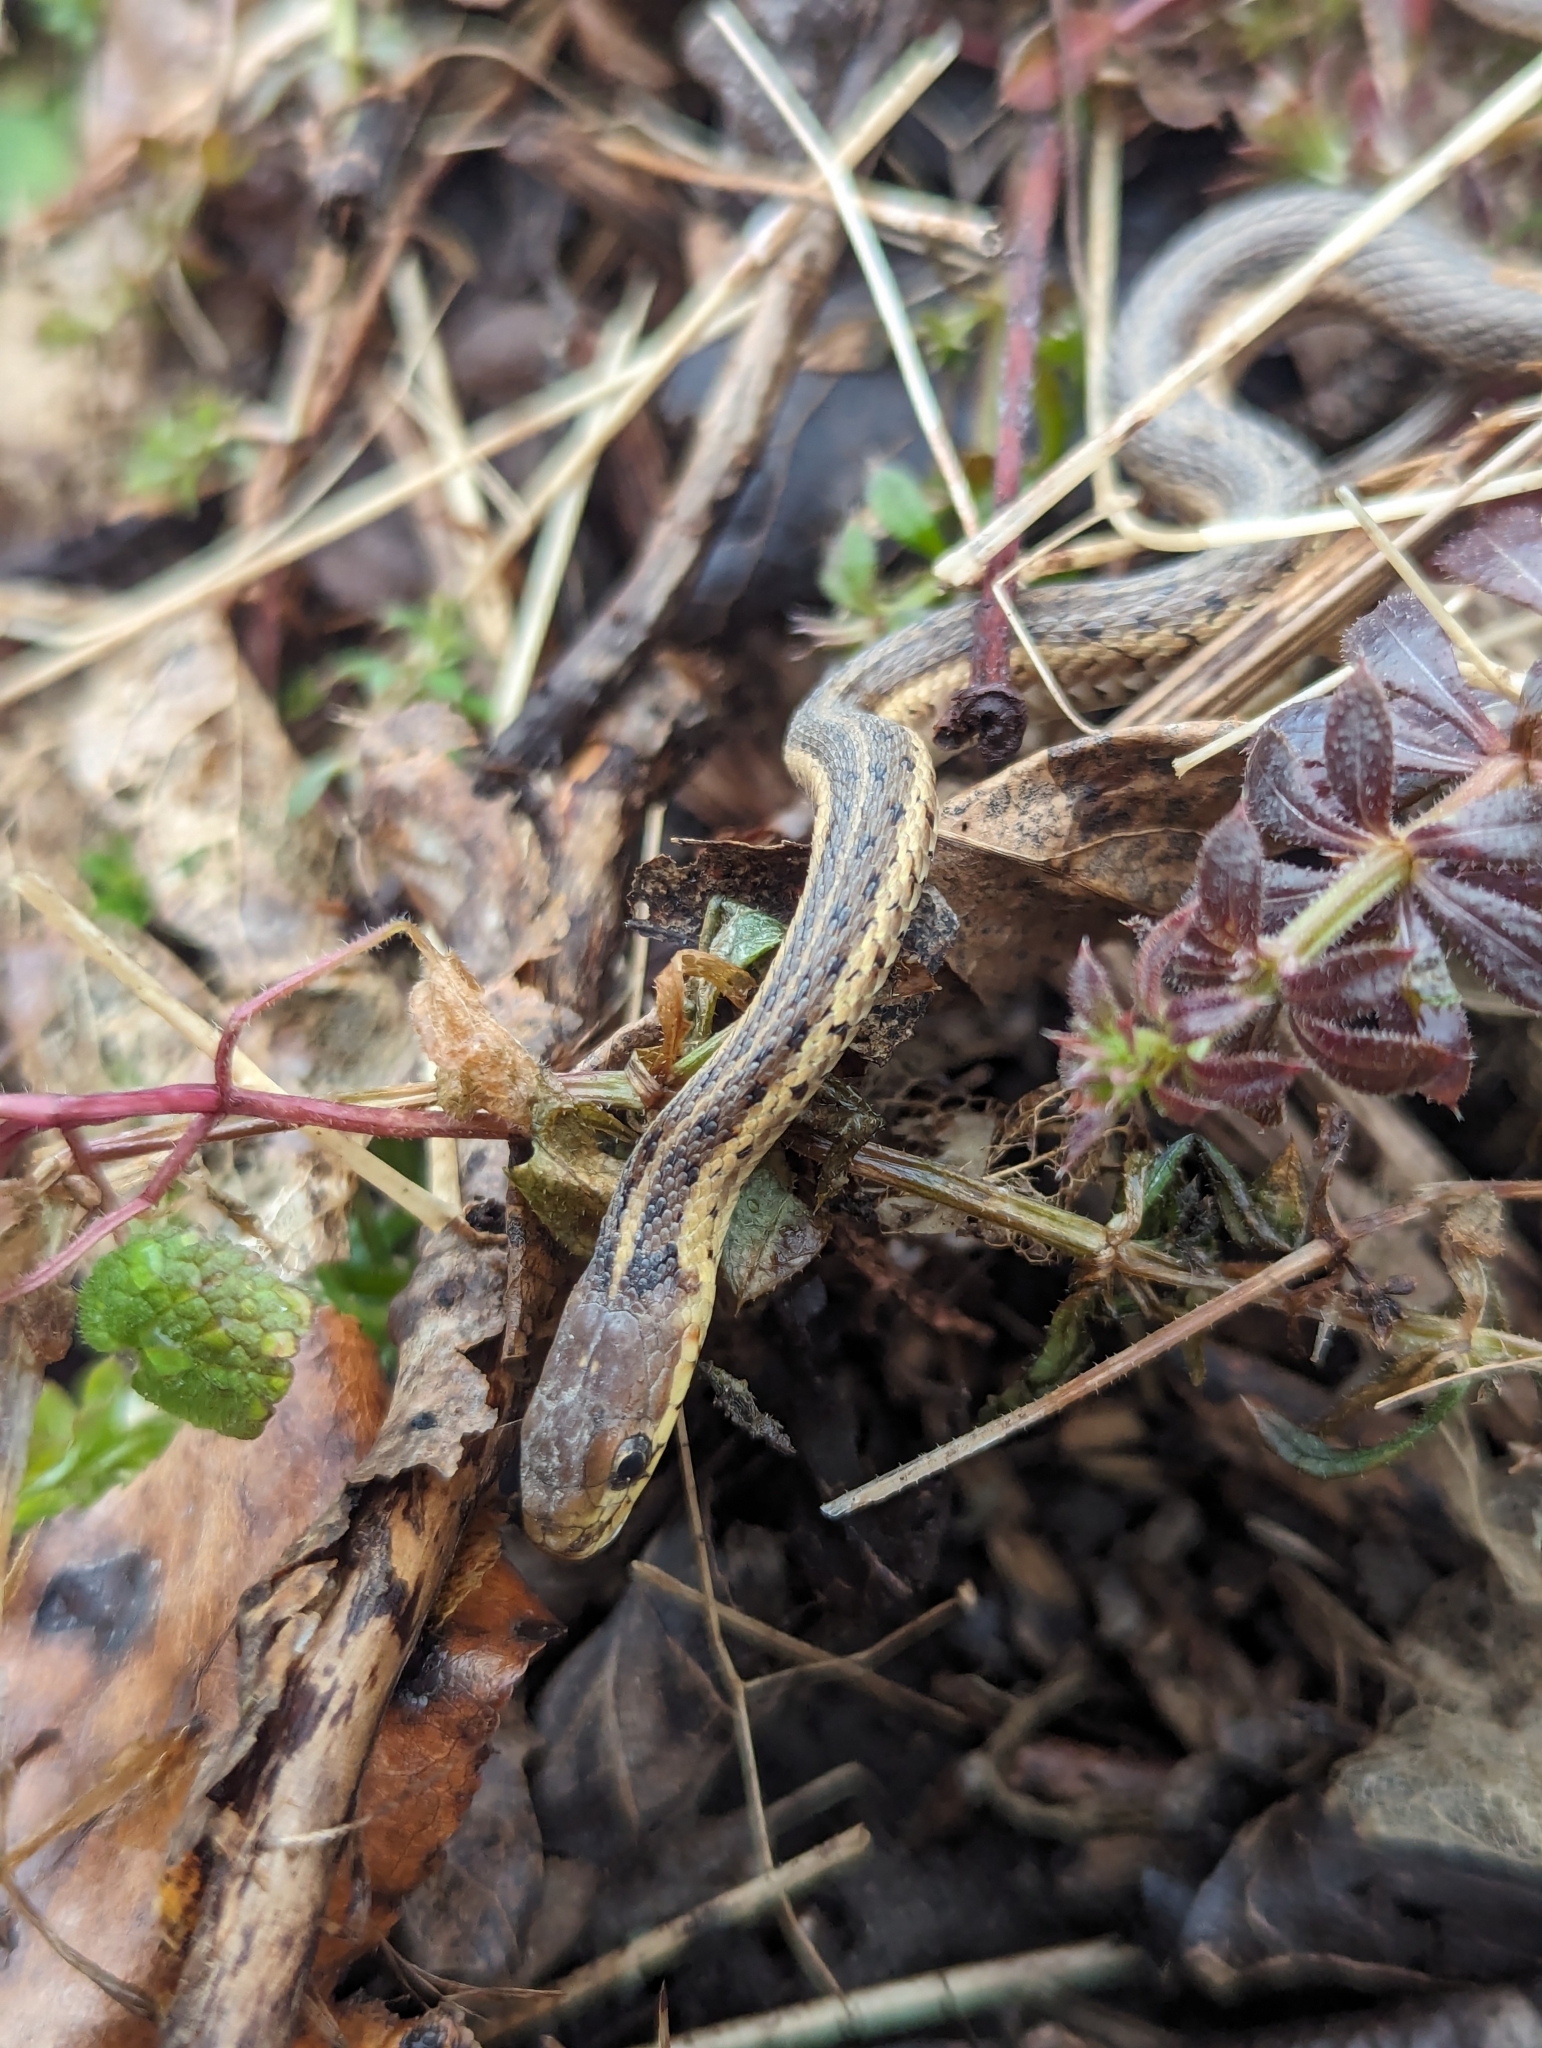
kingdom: Animalia
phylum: Chordata
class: Squamata
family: Colubridae
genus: Thamnophis
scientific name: Thamnophis sirtalis
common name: Common garter snake
